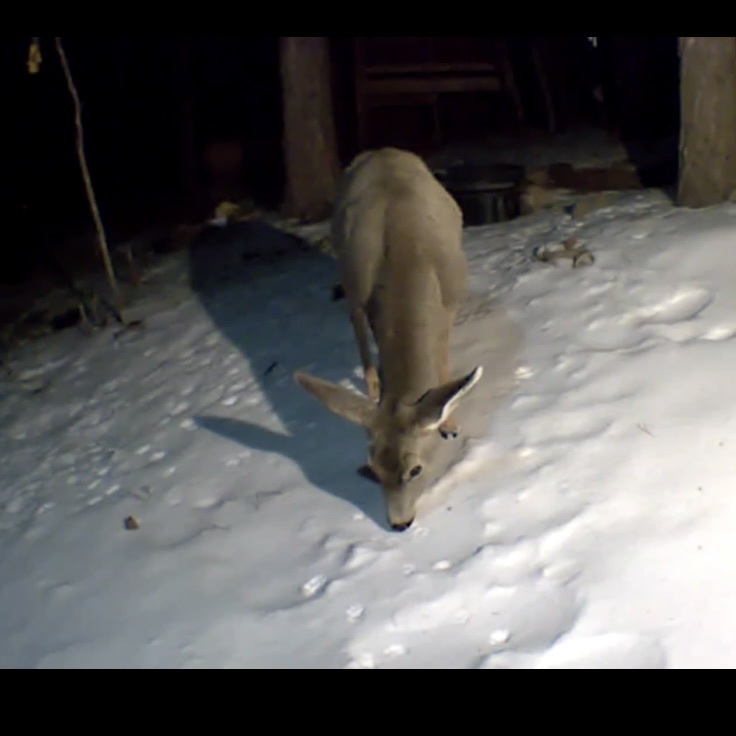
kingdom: Animalia
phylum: Chordata
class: Mammalia
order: Artiodactyla
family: Cervidae
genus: Odocoileus
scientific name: Odocoileus hemionus
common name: Mule deer
